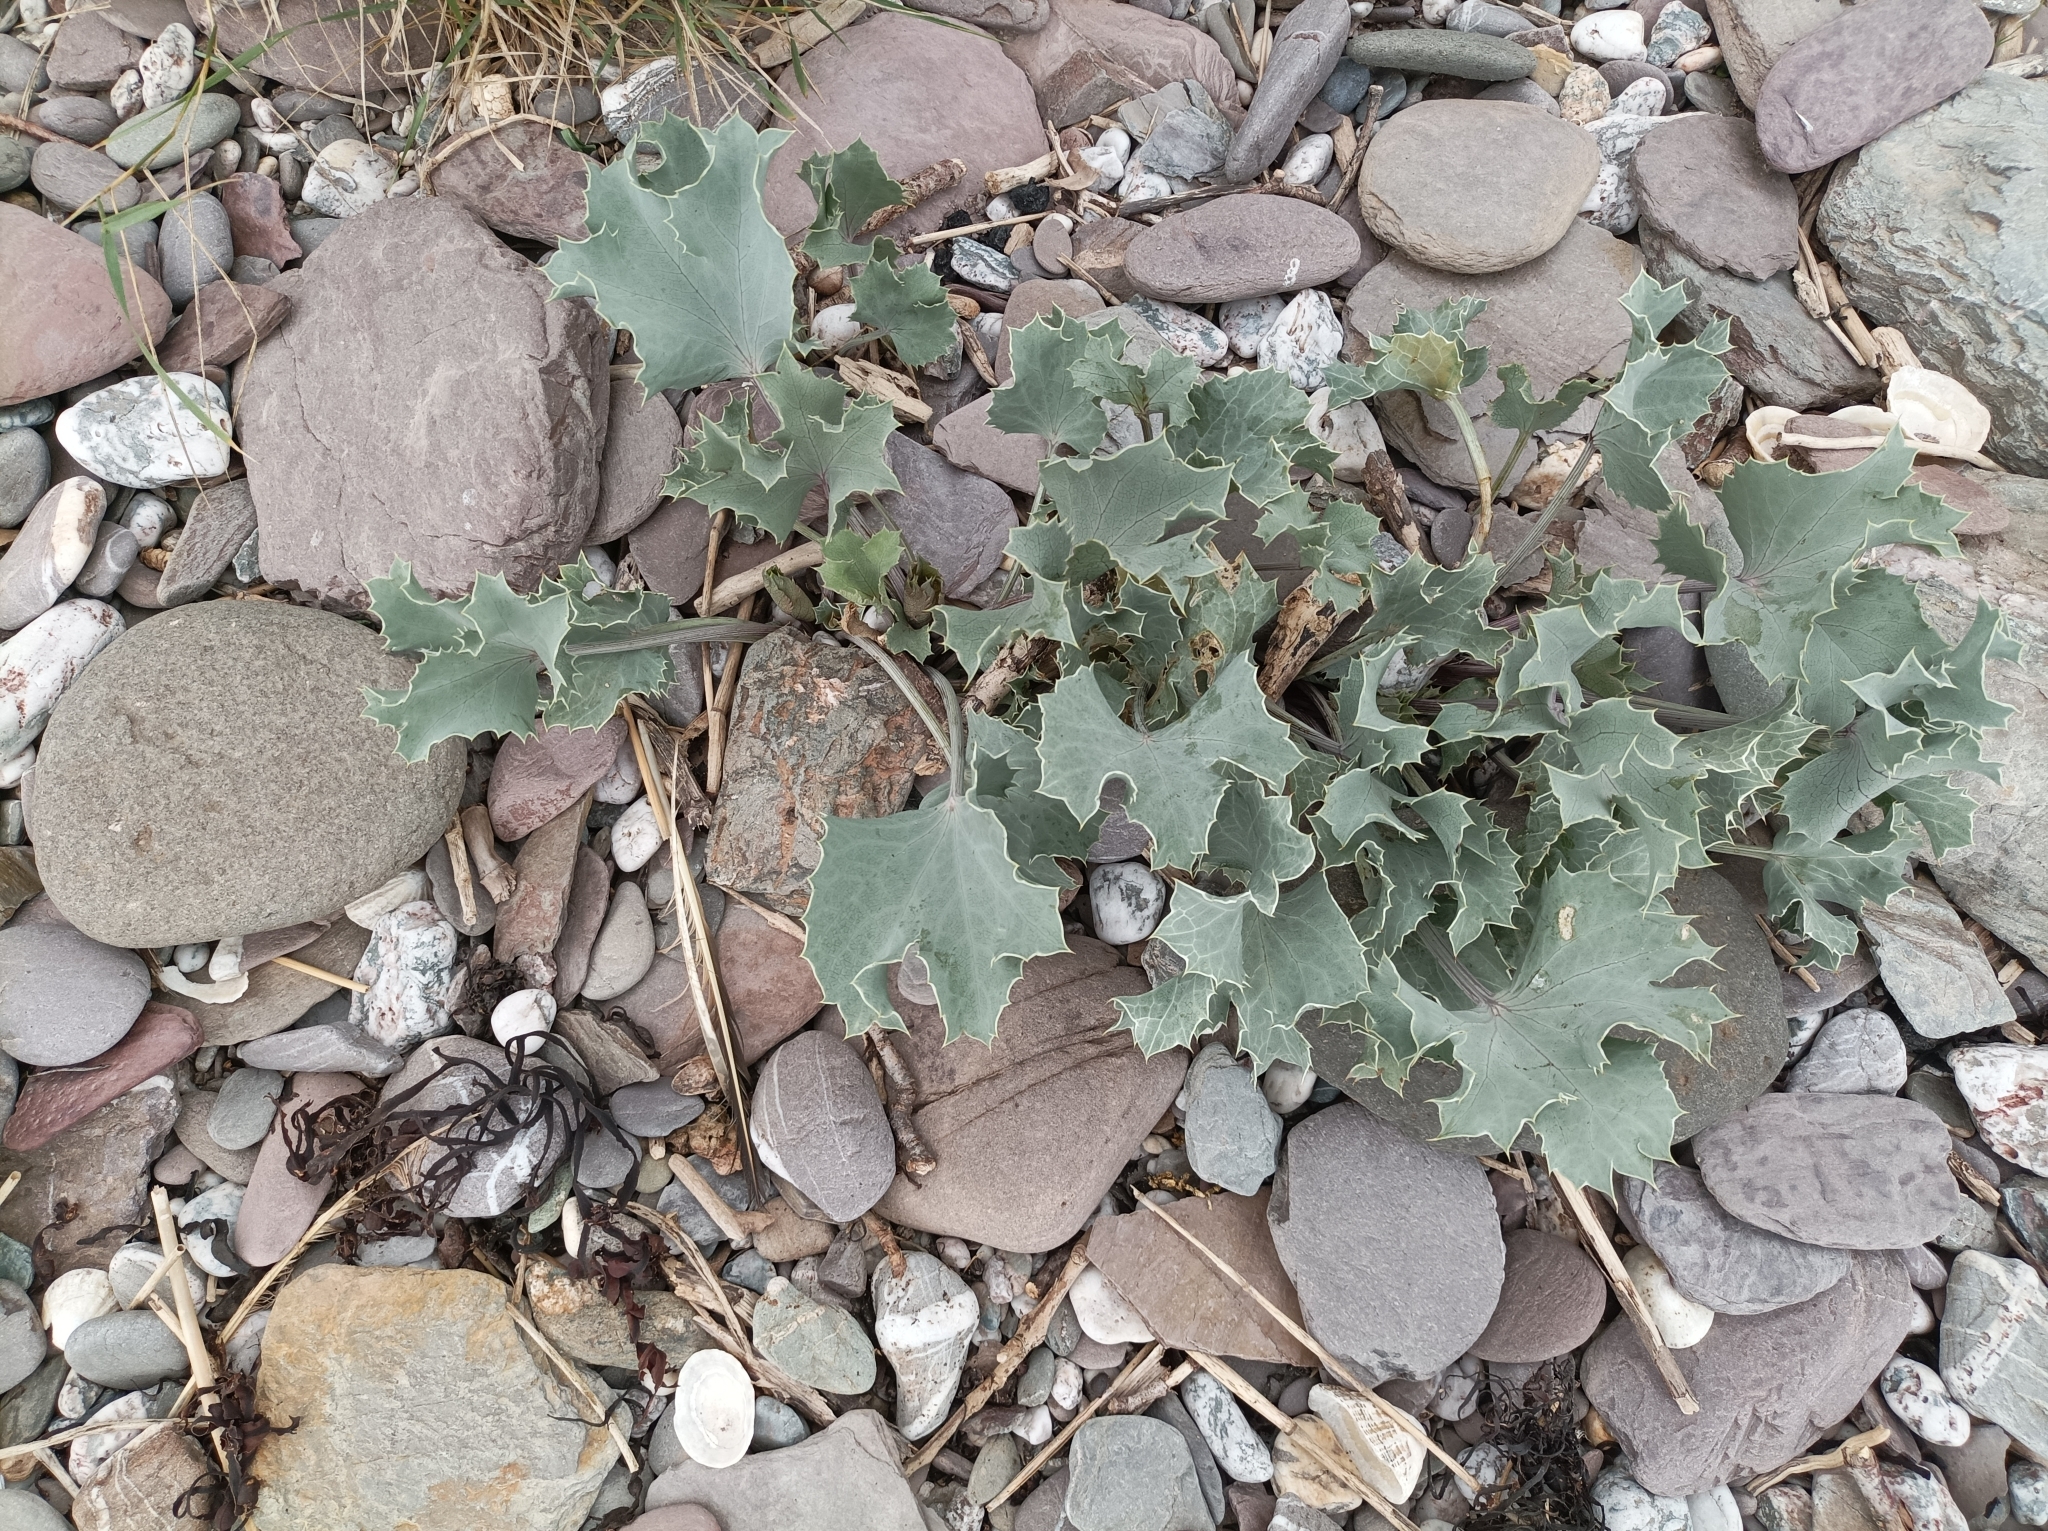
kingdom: Plantae
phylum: Tracheophyta
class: Magnoliopsida
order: Apiales
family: Apiaceae
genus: Eryngium
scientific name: Eryngium maritimum
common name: Sea-holly
